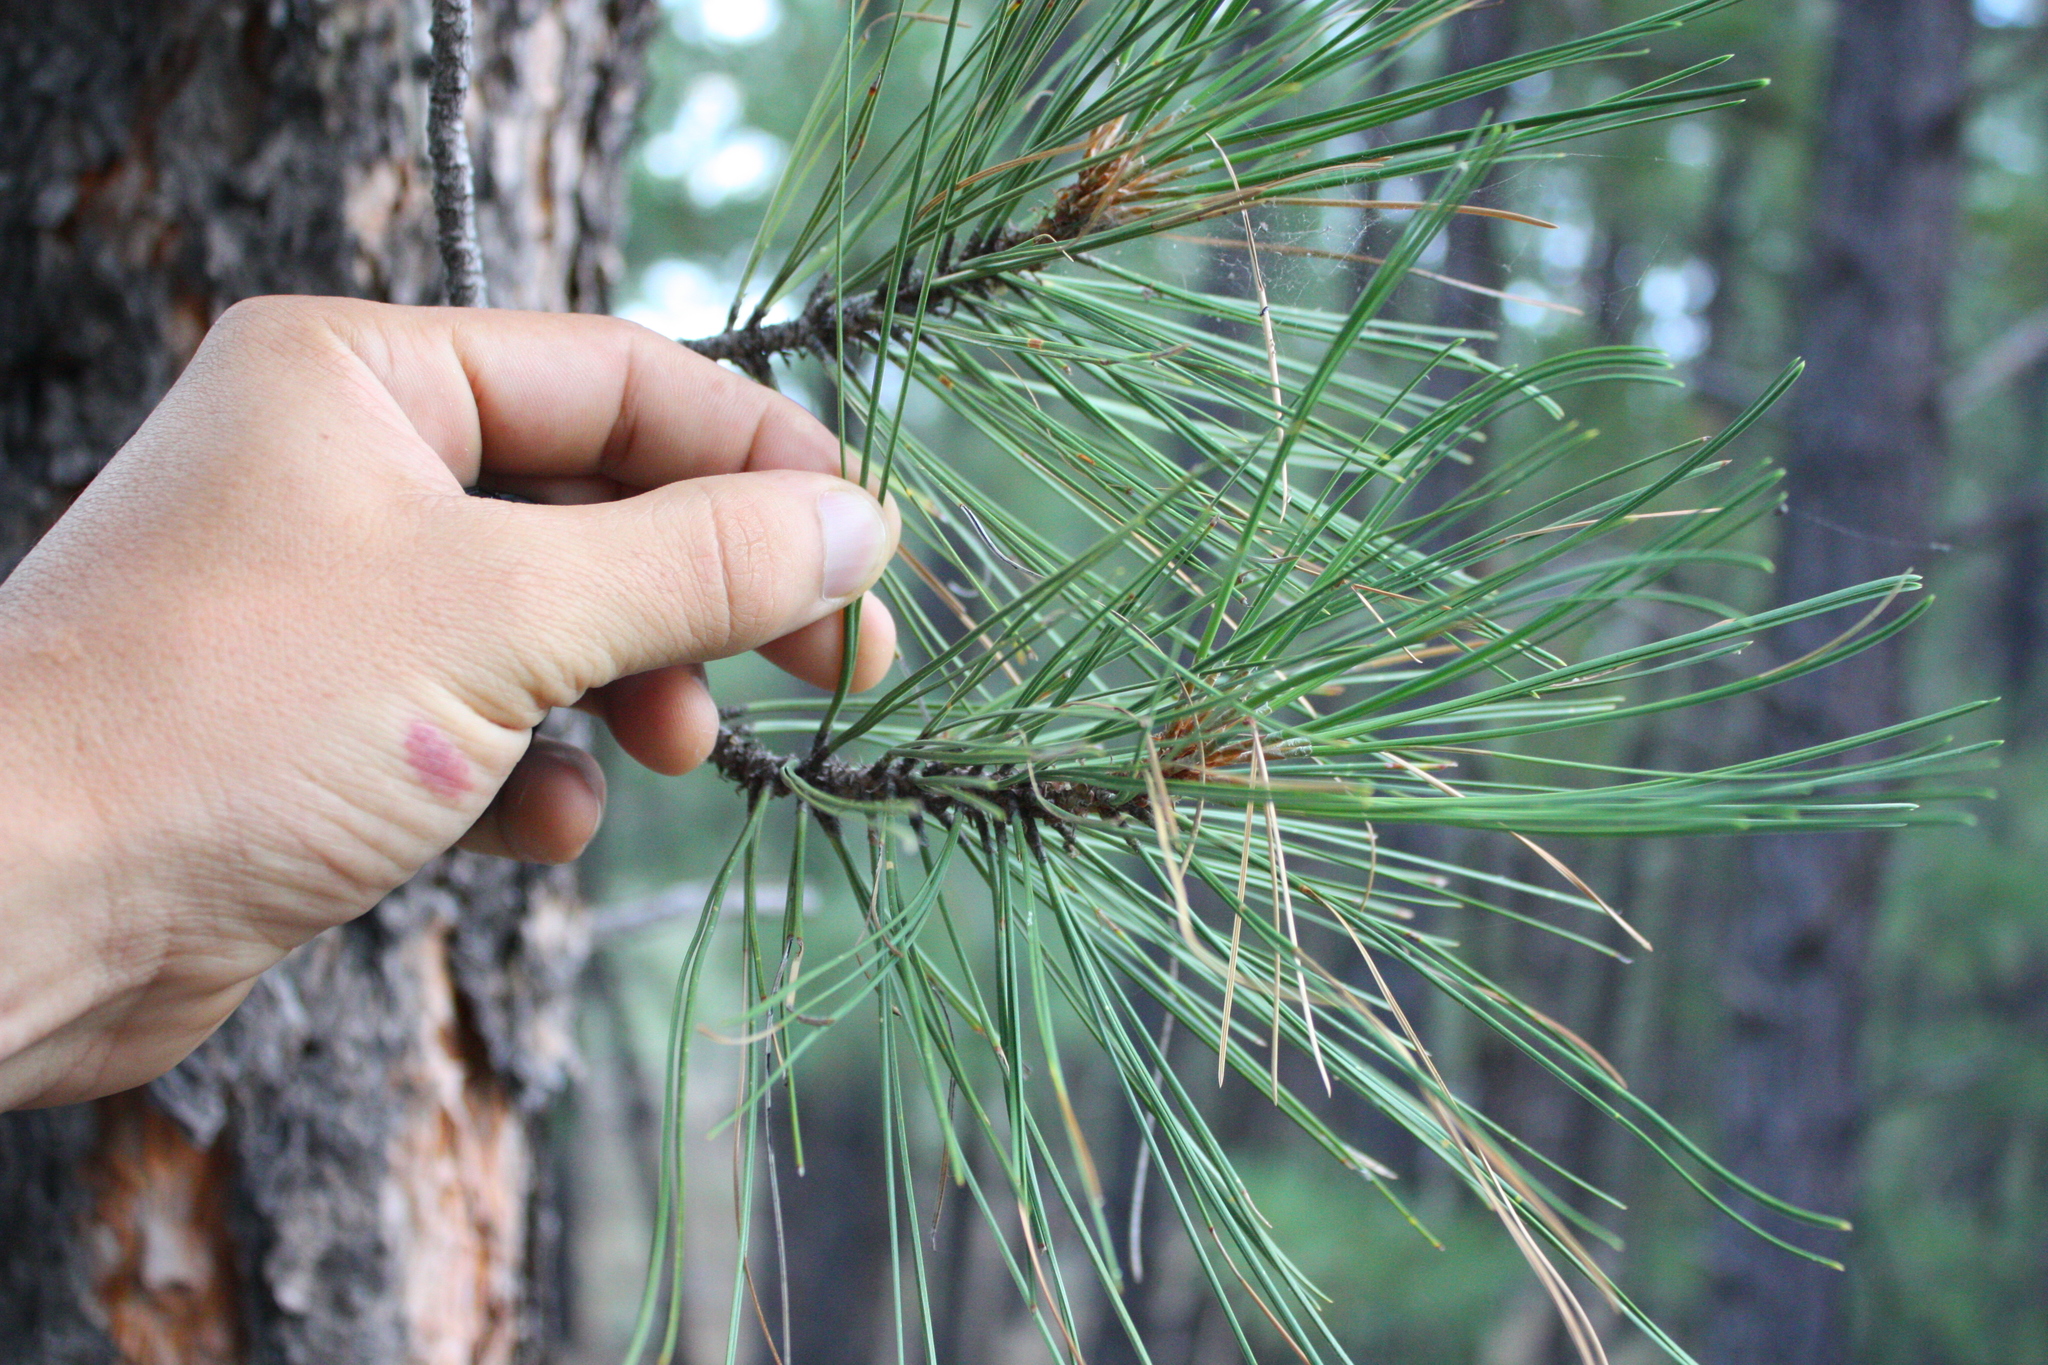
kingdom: Plantae
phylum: Tracheophyta
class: Pinopsida
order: Pinales
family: Pinaceae
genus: Pinus
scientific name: Pinus ponderosa
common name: Western yellow-pine
